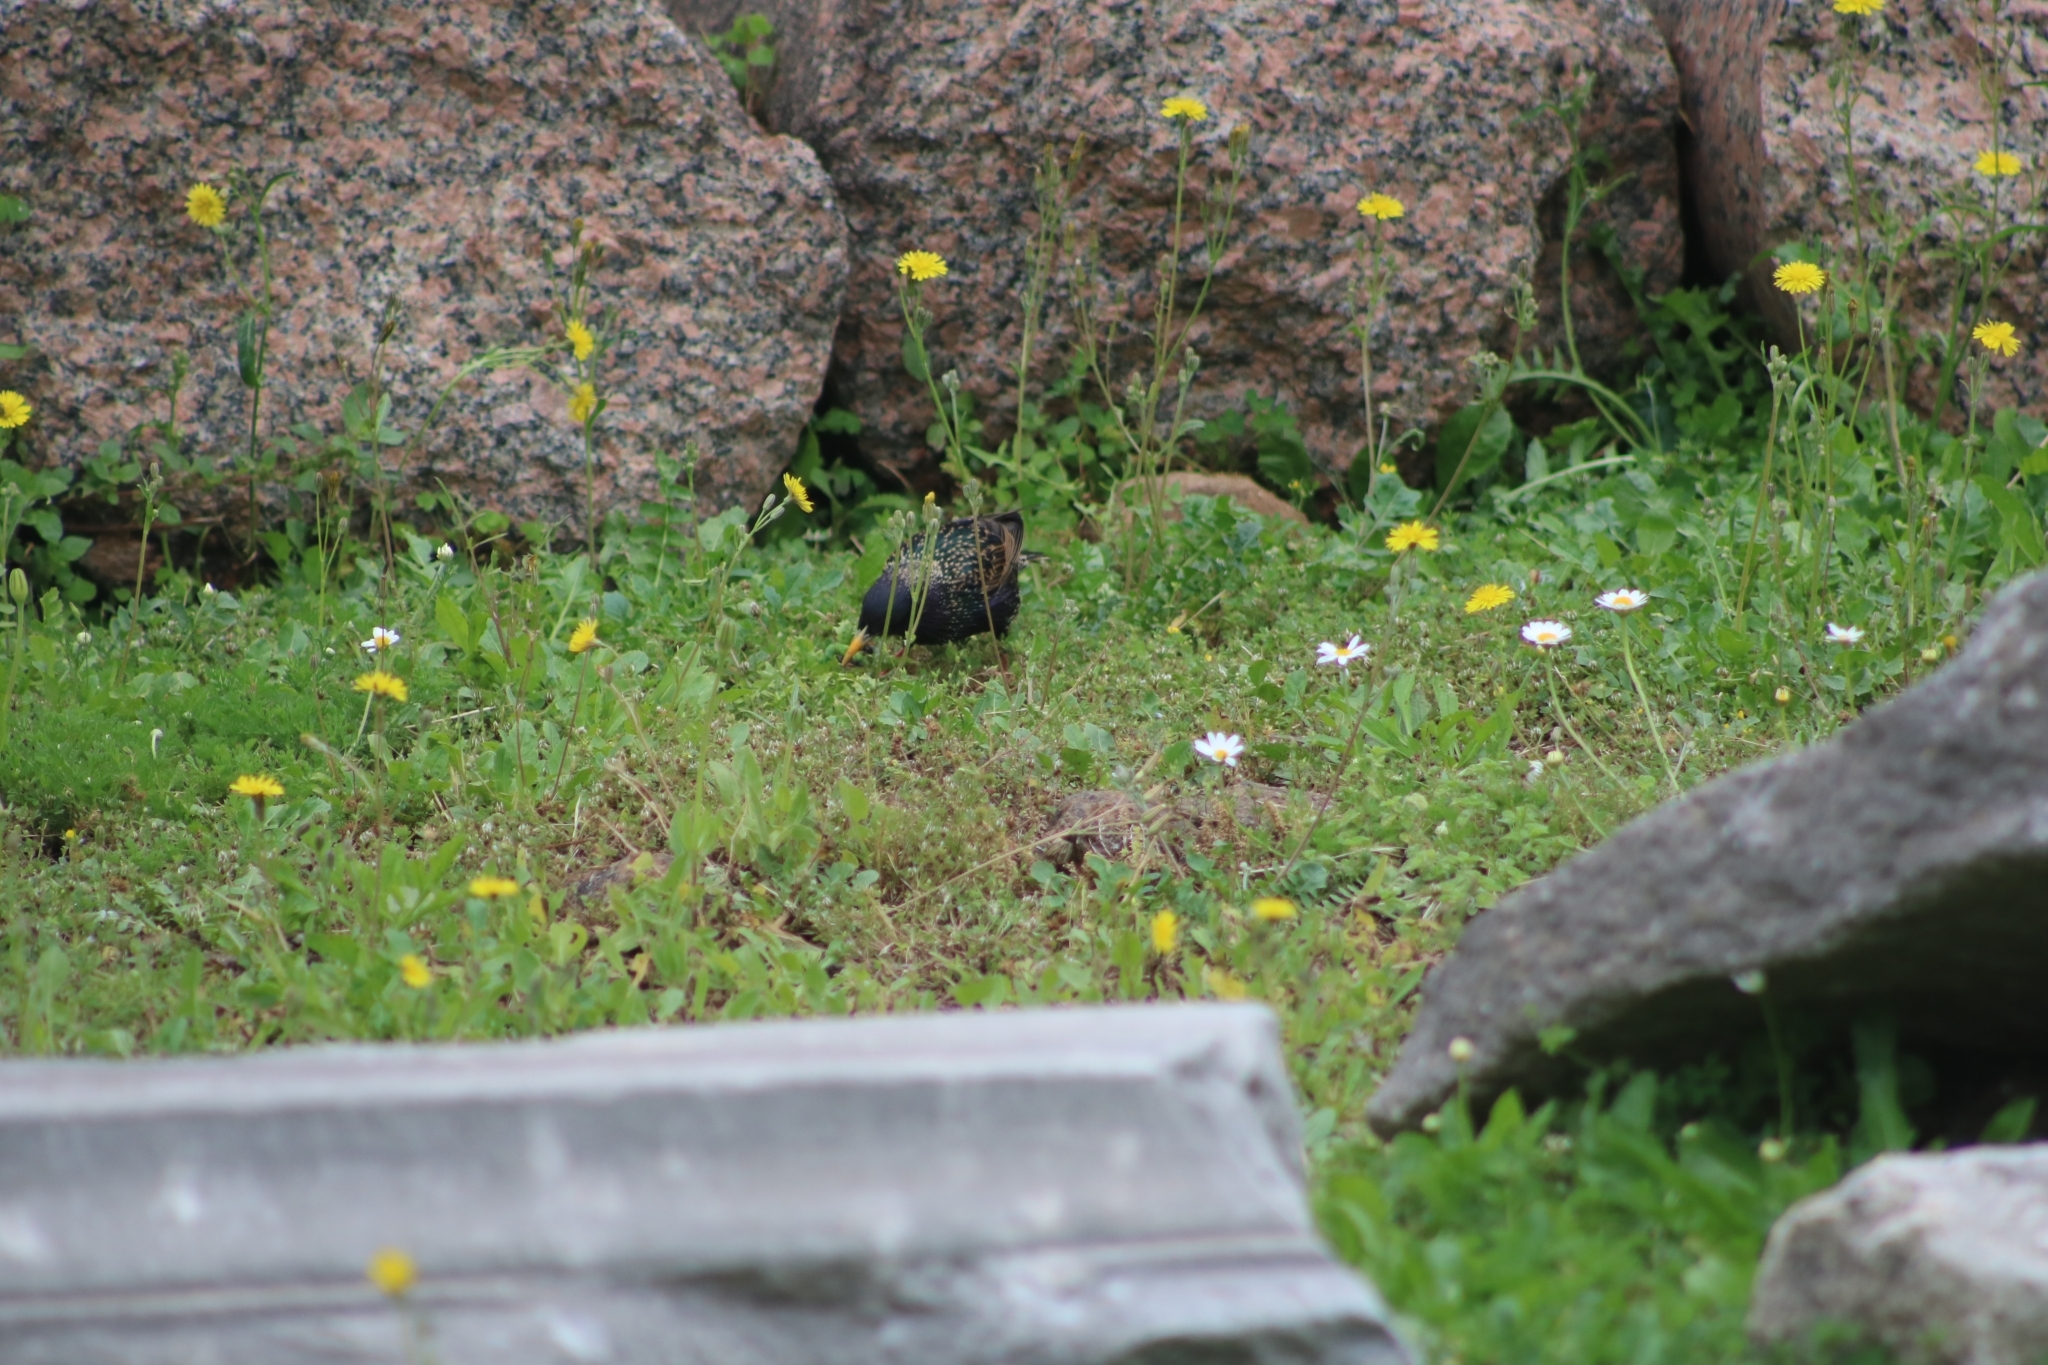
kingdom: Animalia
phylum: Chordata
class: Aves
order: Passeriformes
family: Sturnidae
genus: Sturnus
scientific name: Sturnus vulgaris
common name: Common starling
